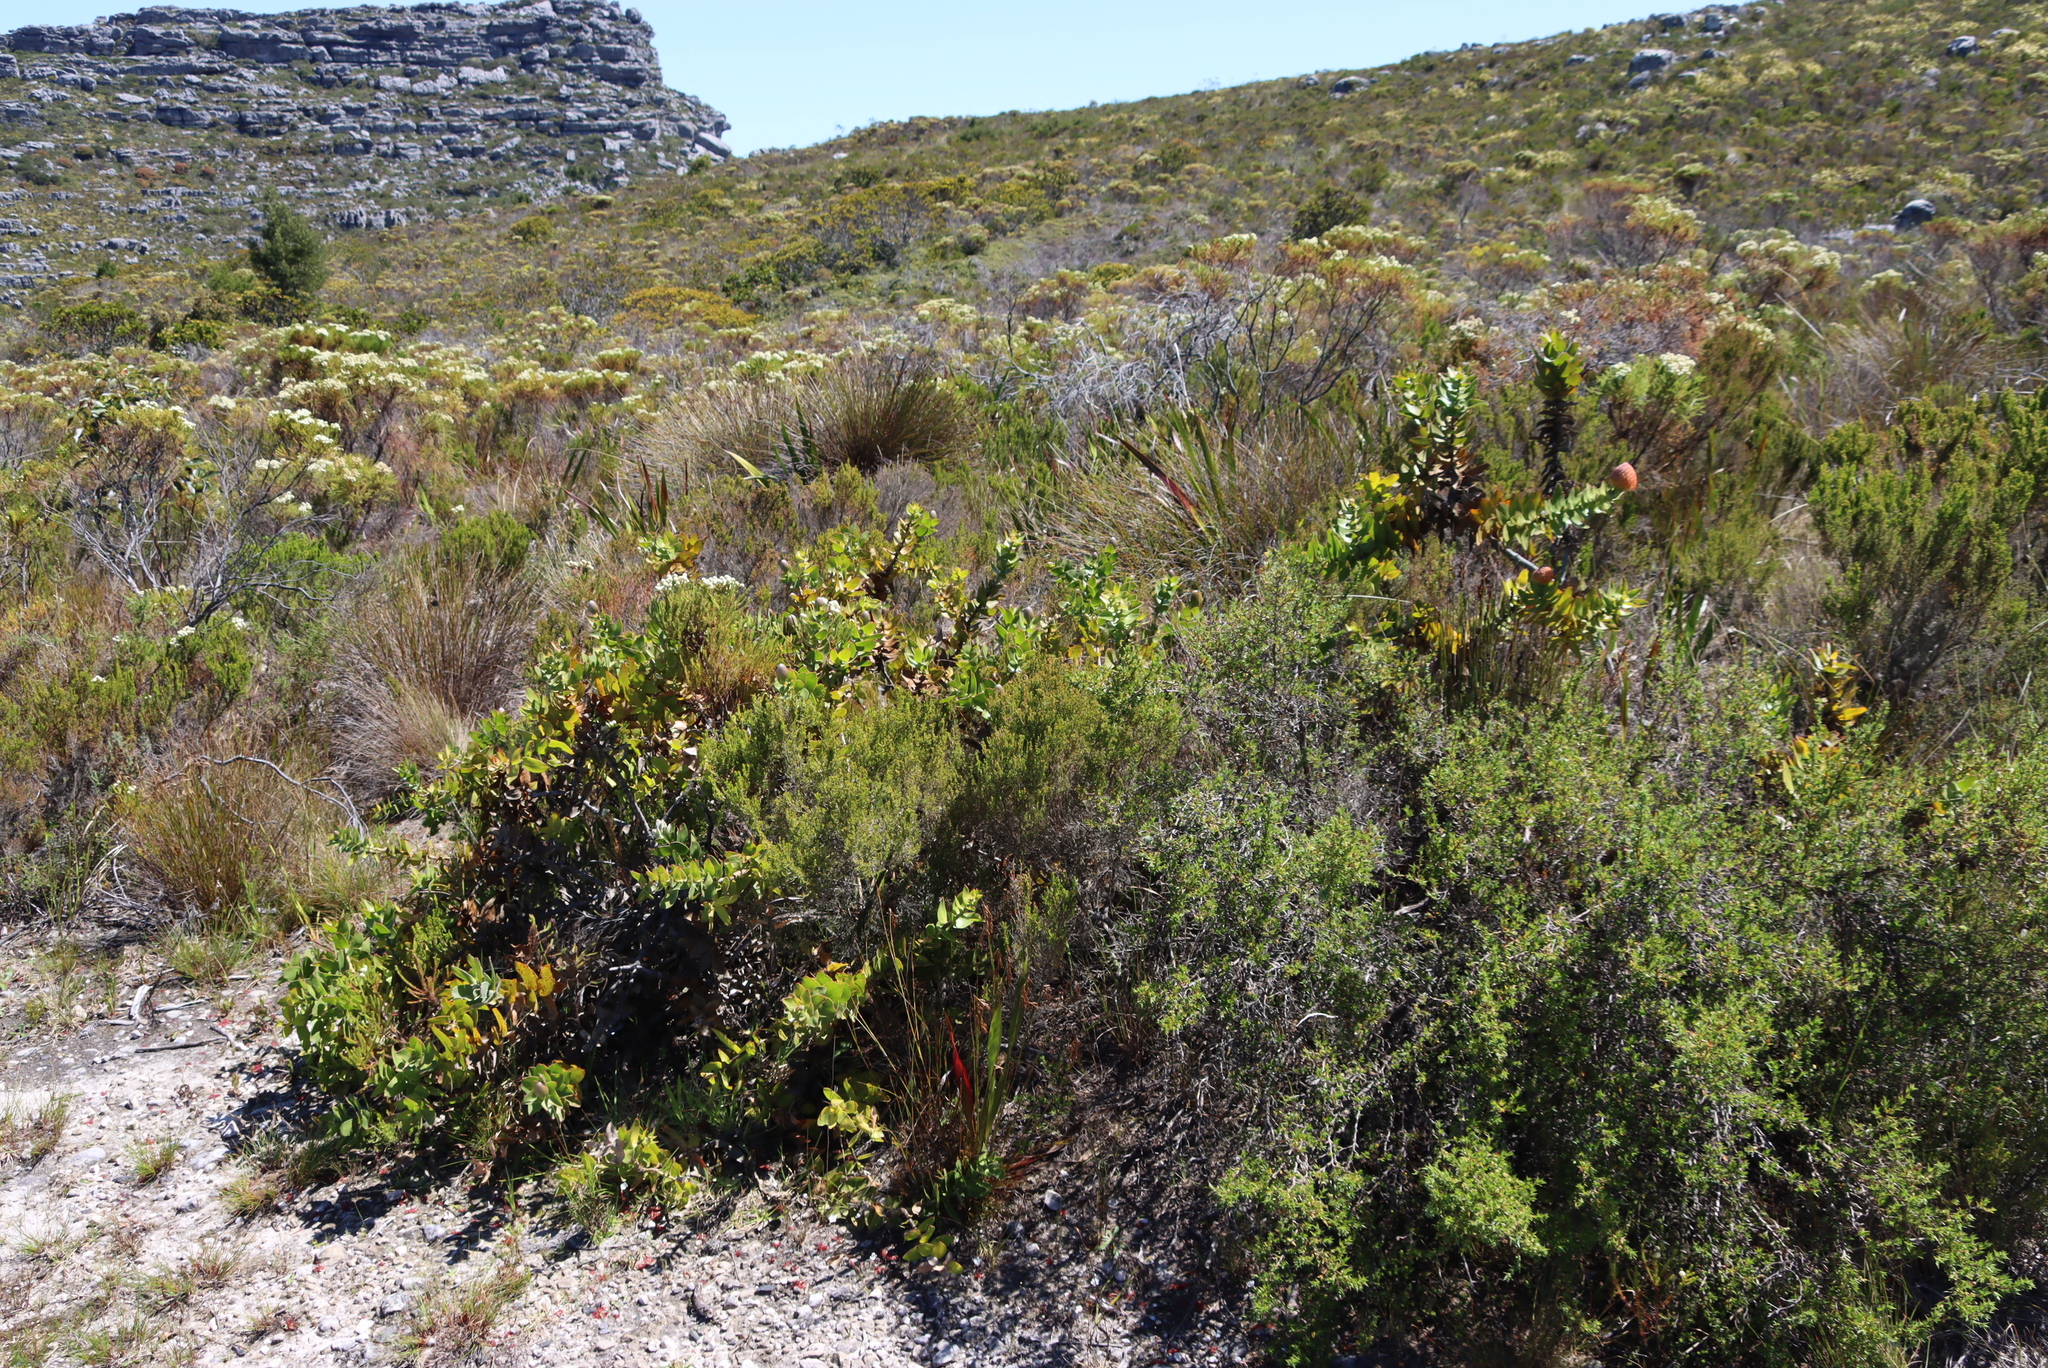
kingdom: Plantae
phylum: Tracheophyta
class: Magnoliopsida
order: Proteales
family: Proteaceae
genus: Leucospermum
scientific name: Leucospermum cordifolium
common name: Red pincushion-protea
